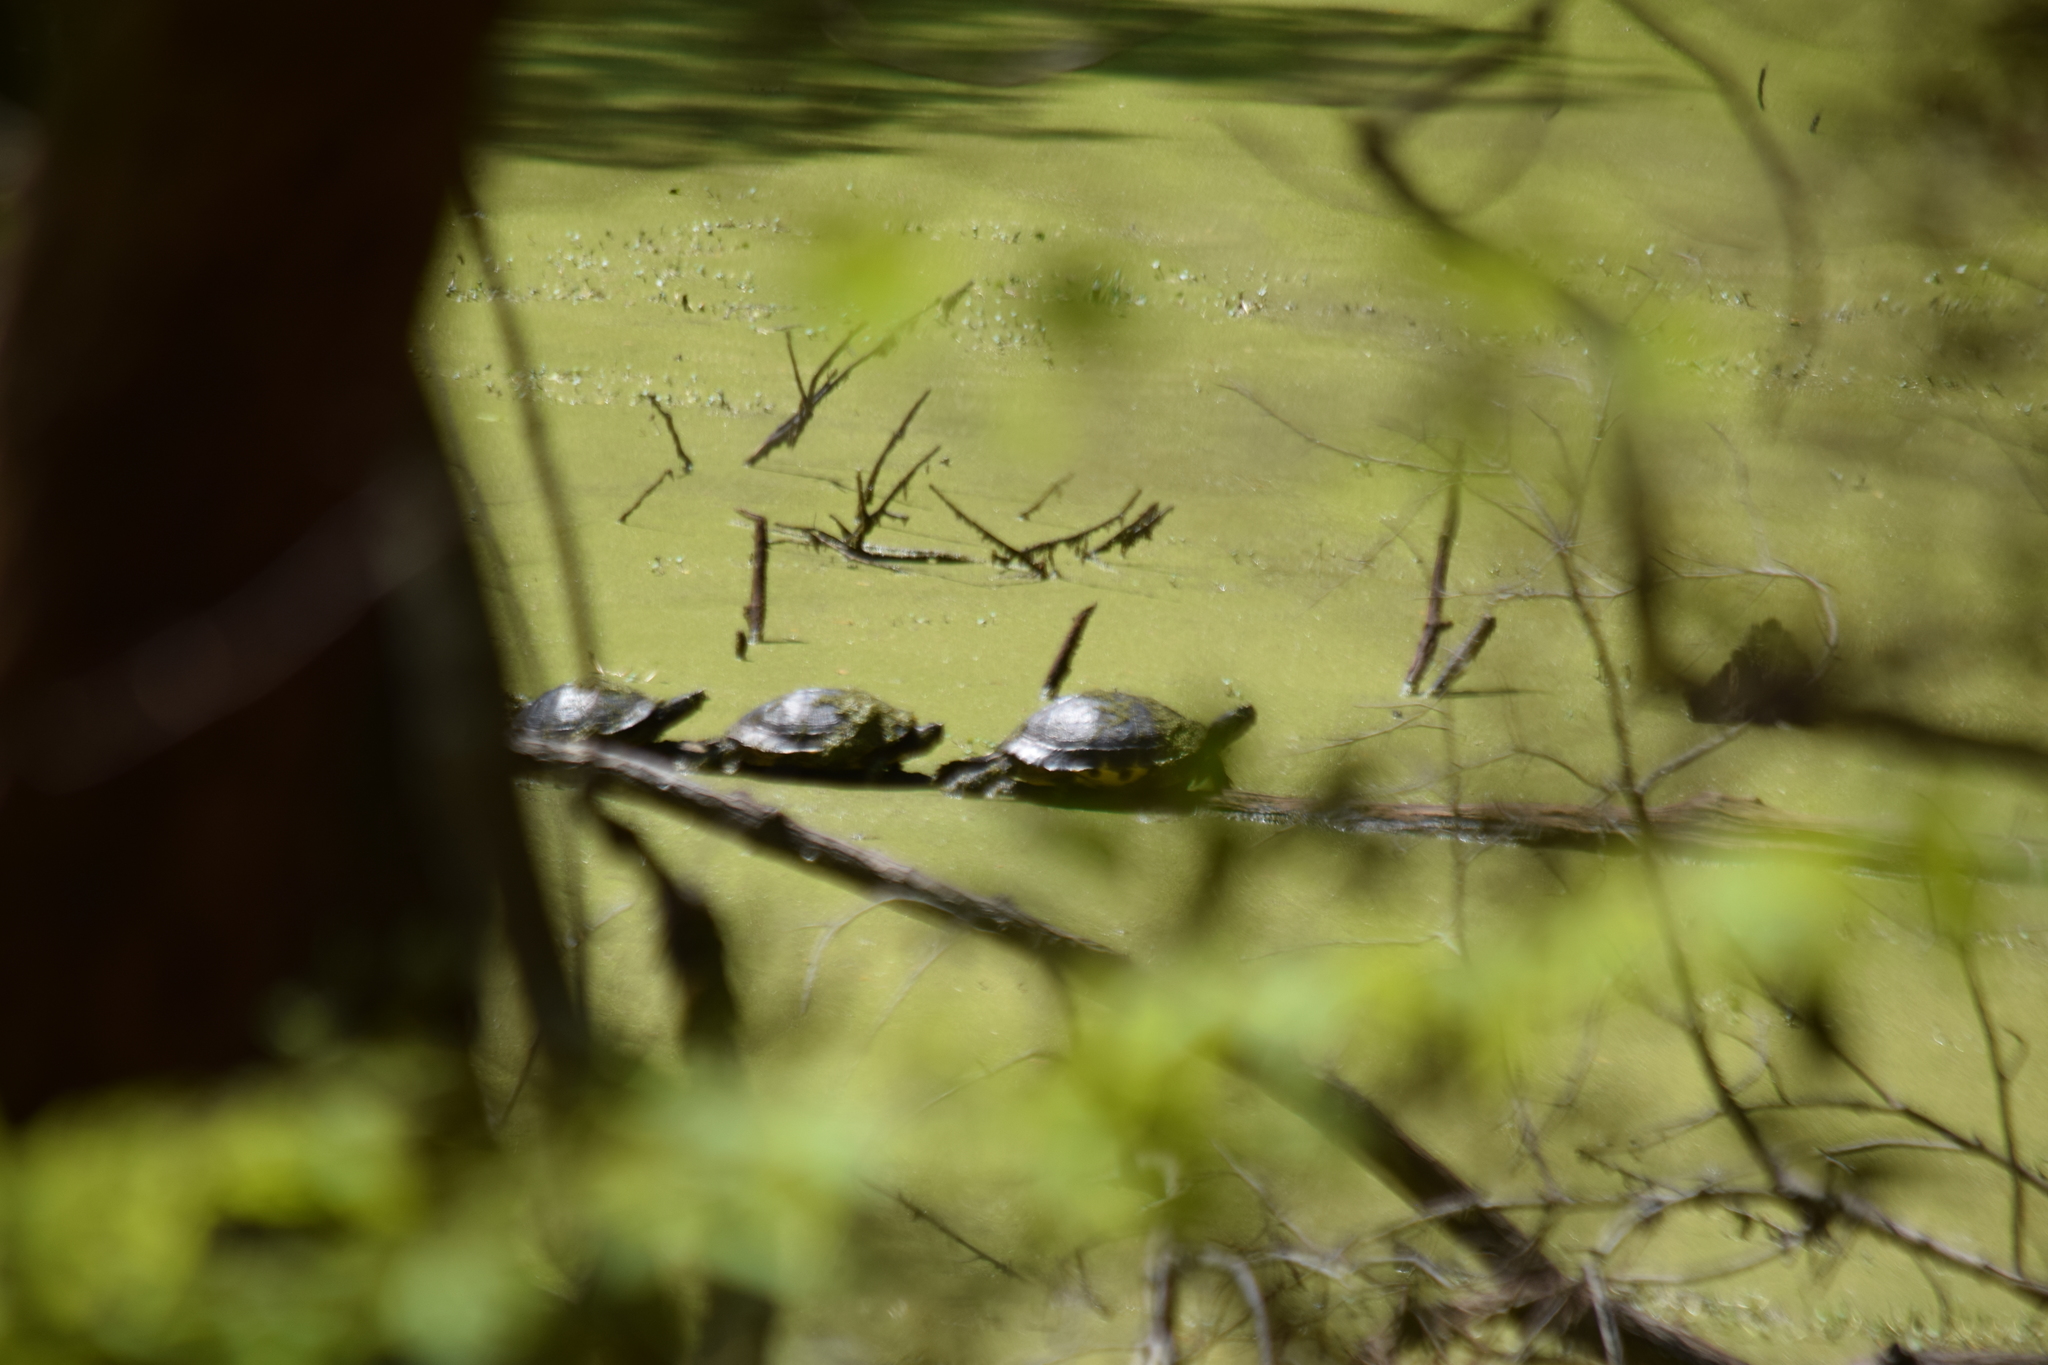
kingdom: Animalia
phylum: Chordata
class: Testudines
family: Emydidae
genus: Trachemys
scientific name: Trachemys scripta
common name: Slider
